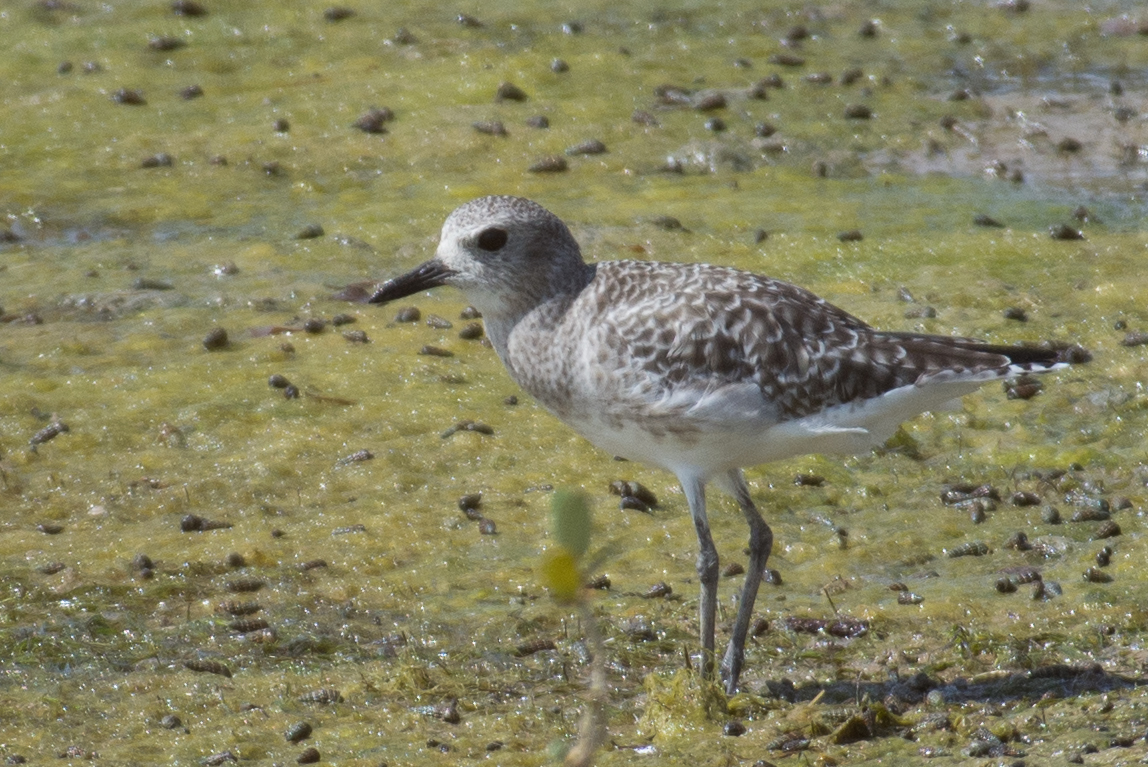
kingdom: Animalia
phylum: Chordata
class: Aves
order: Charadriiformes
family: Charadriidae
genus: Pluvialis
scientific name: Pluvialis squatarola
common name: Grey plover
